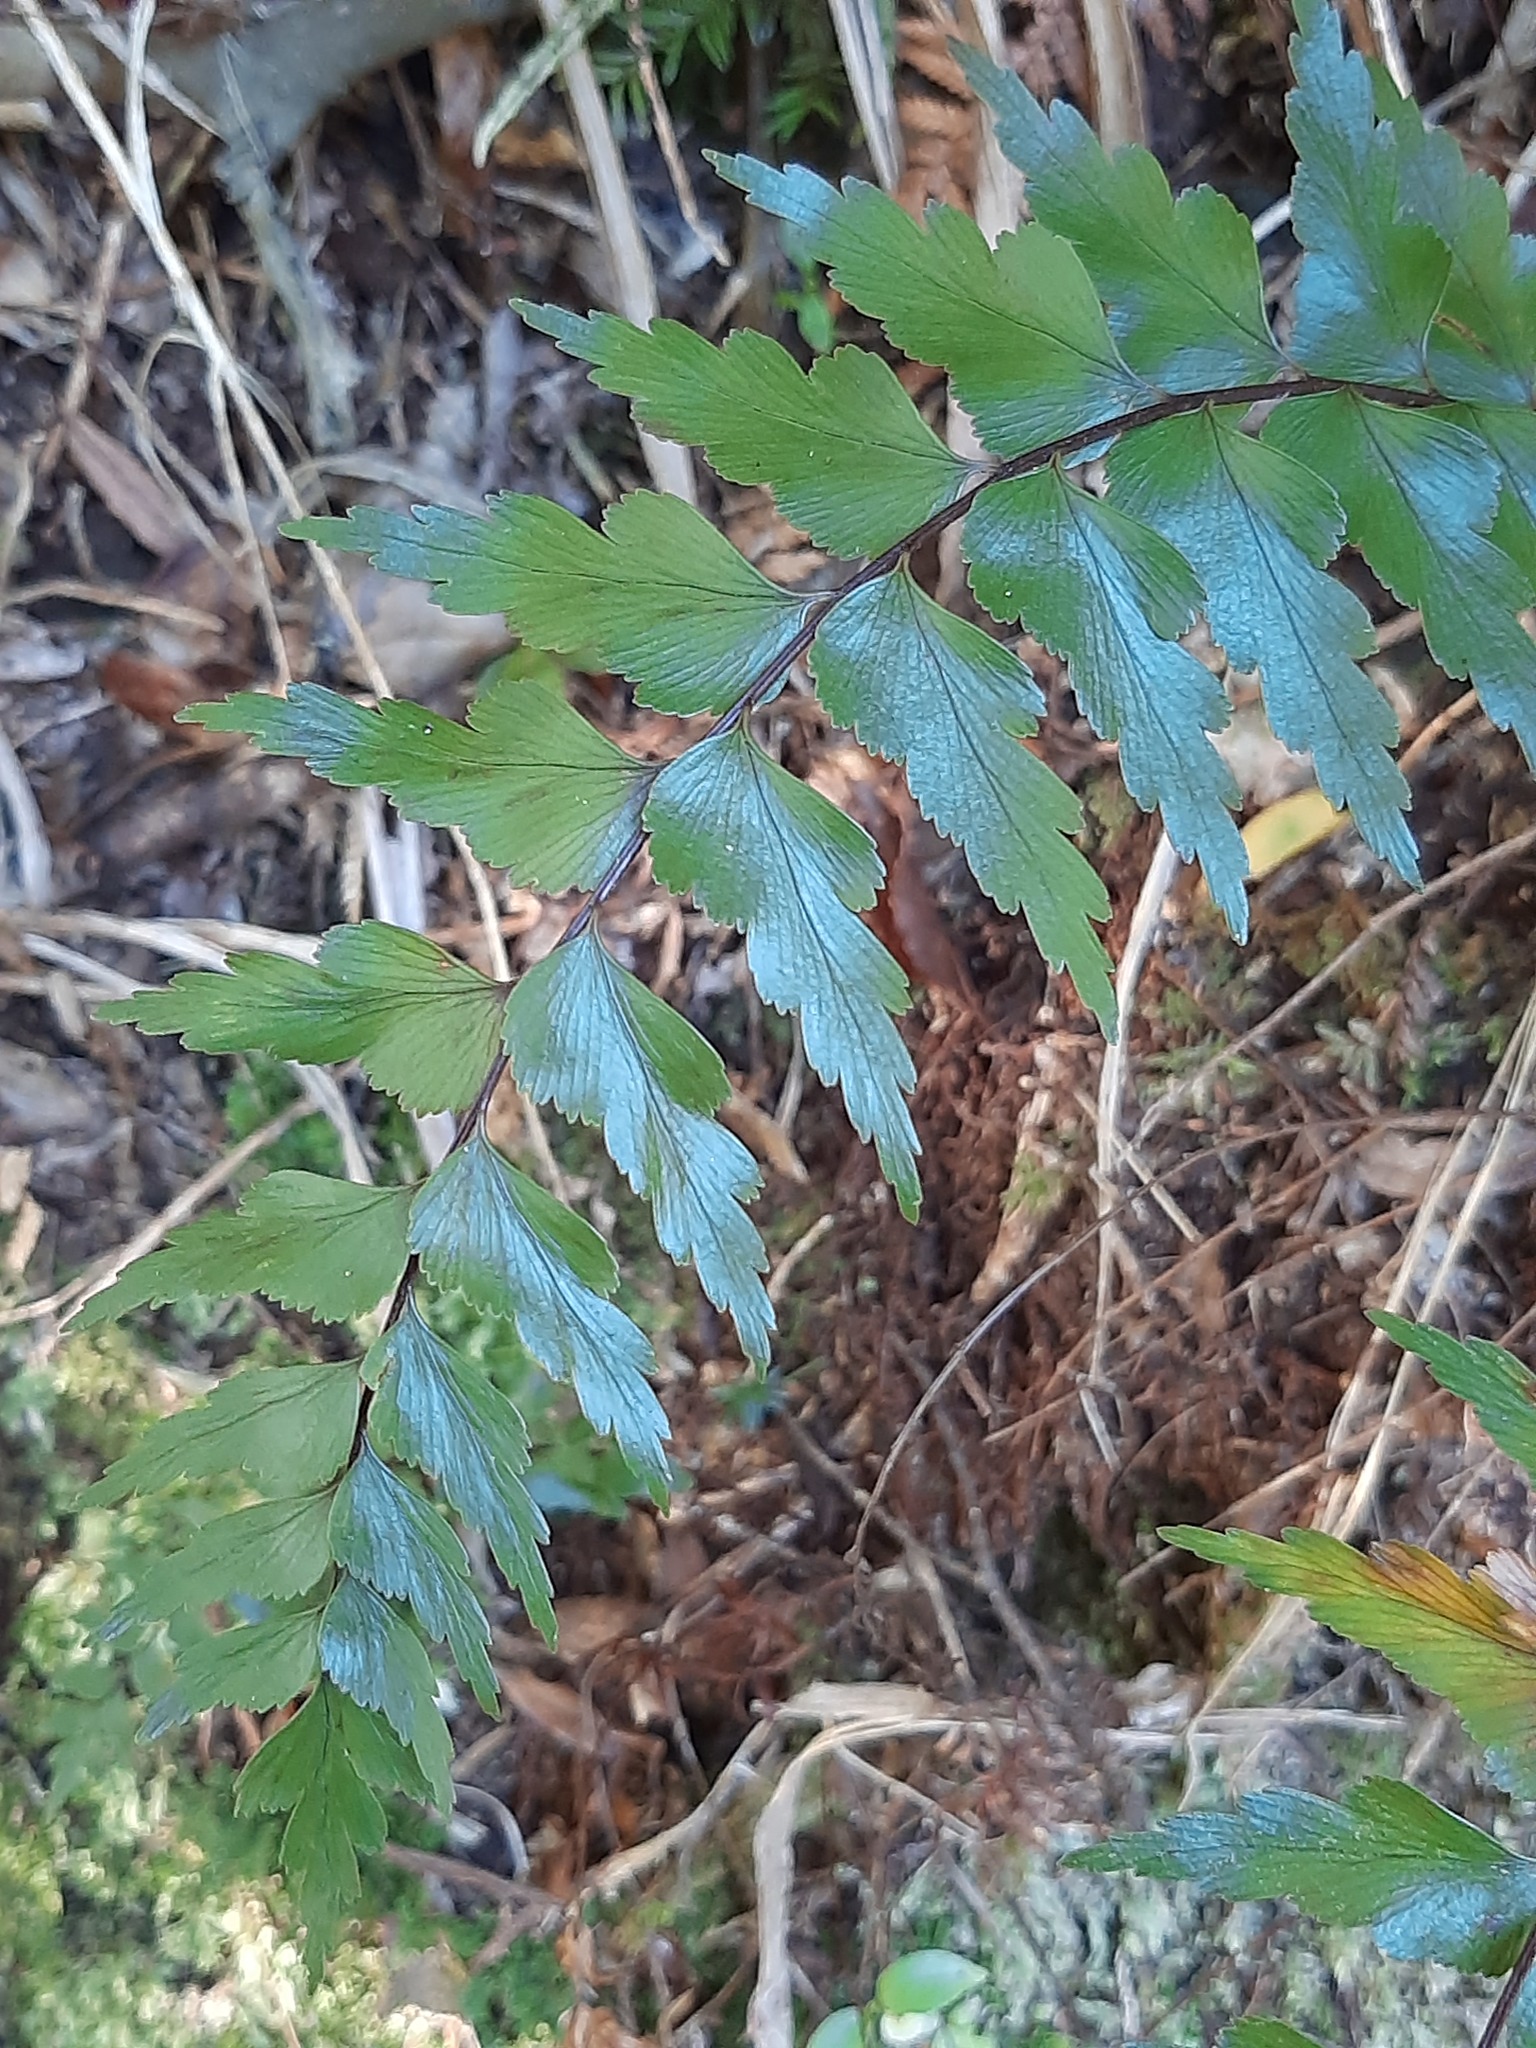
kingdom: Plantae
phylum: Tracheophyta
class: Polypodiopsida
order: Polypodiales
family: Aspleniaceae
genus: Asplenium
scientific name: Asplenium polyodon
